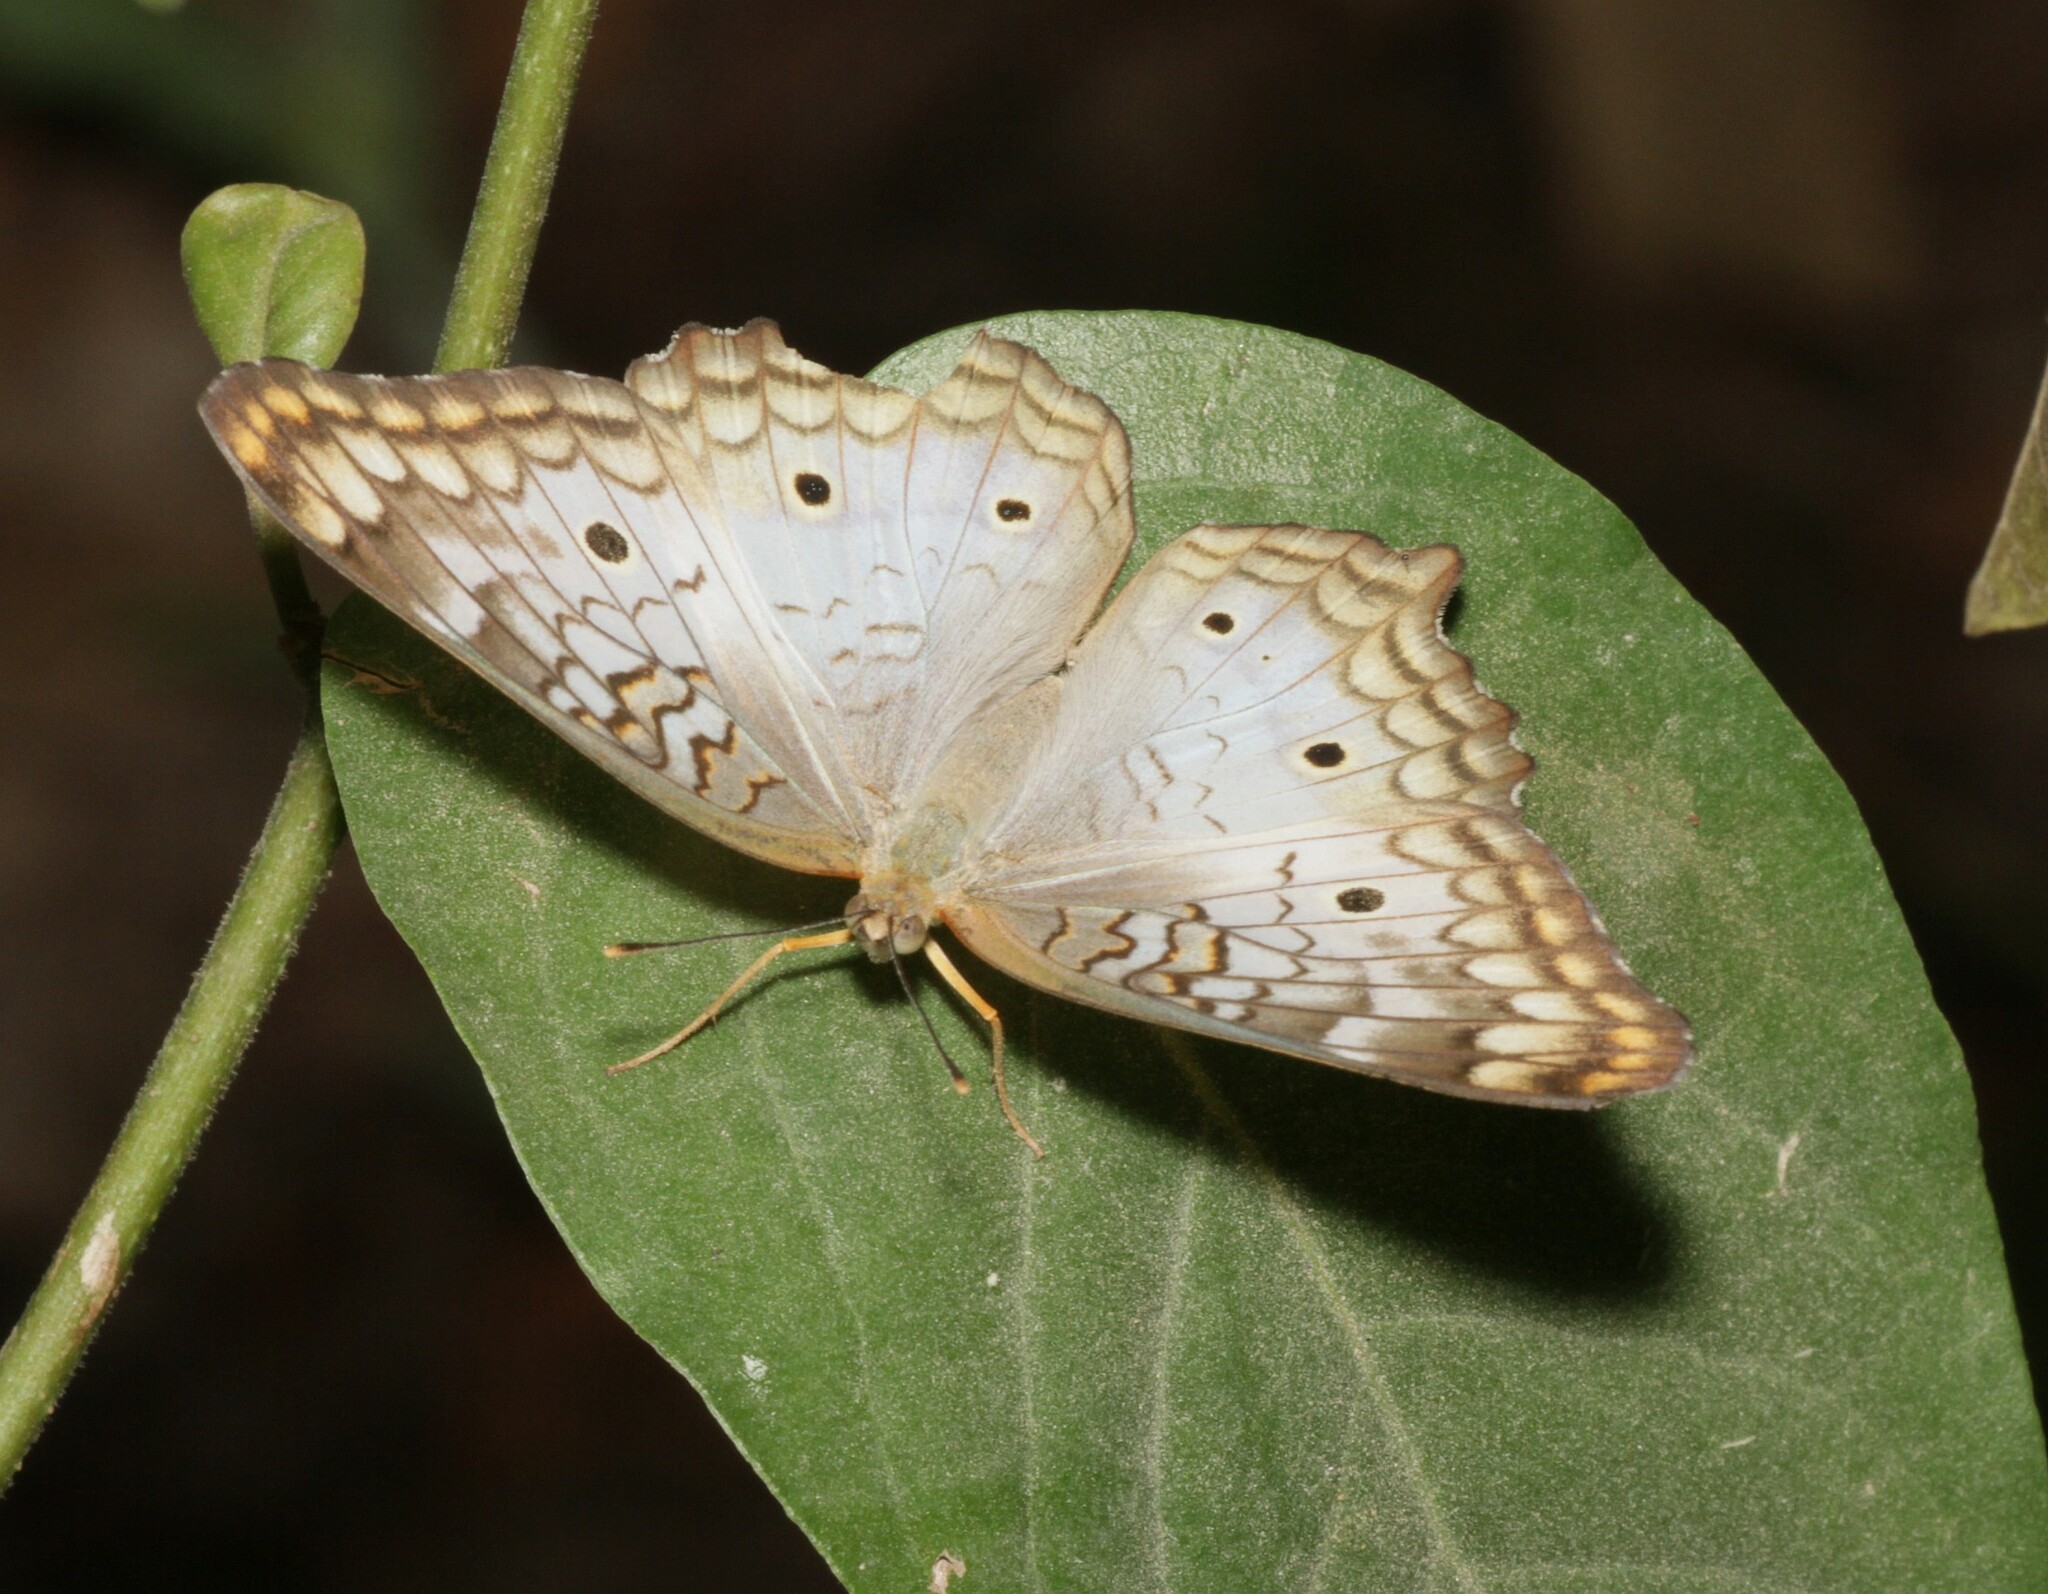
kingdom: Animalia
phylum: Arthropoda
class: Insecta
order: Lepidoptera
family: Nymphalidae
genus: Anartia
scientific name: Anartia jatrophae
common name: White peacock
